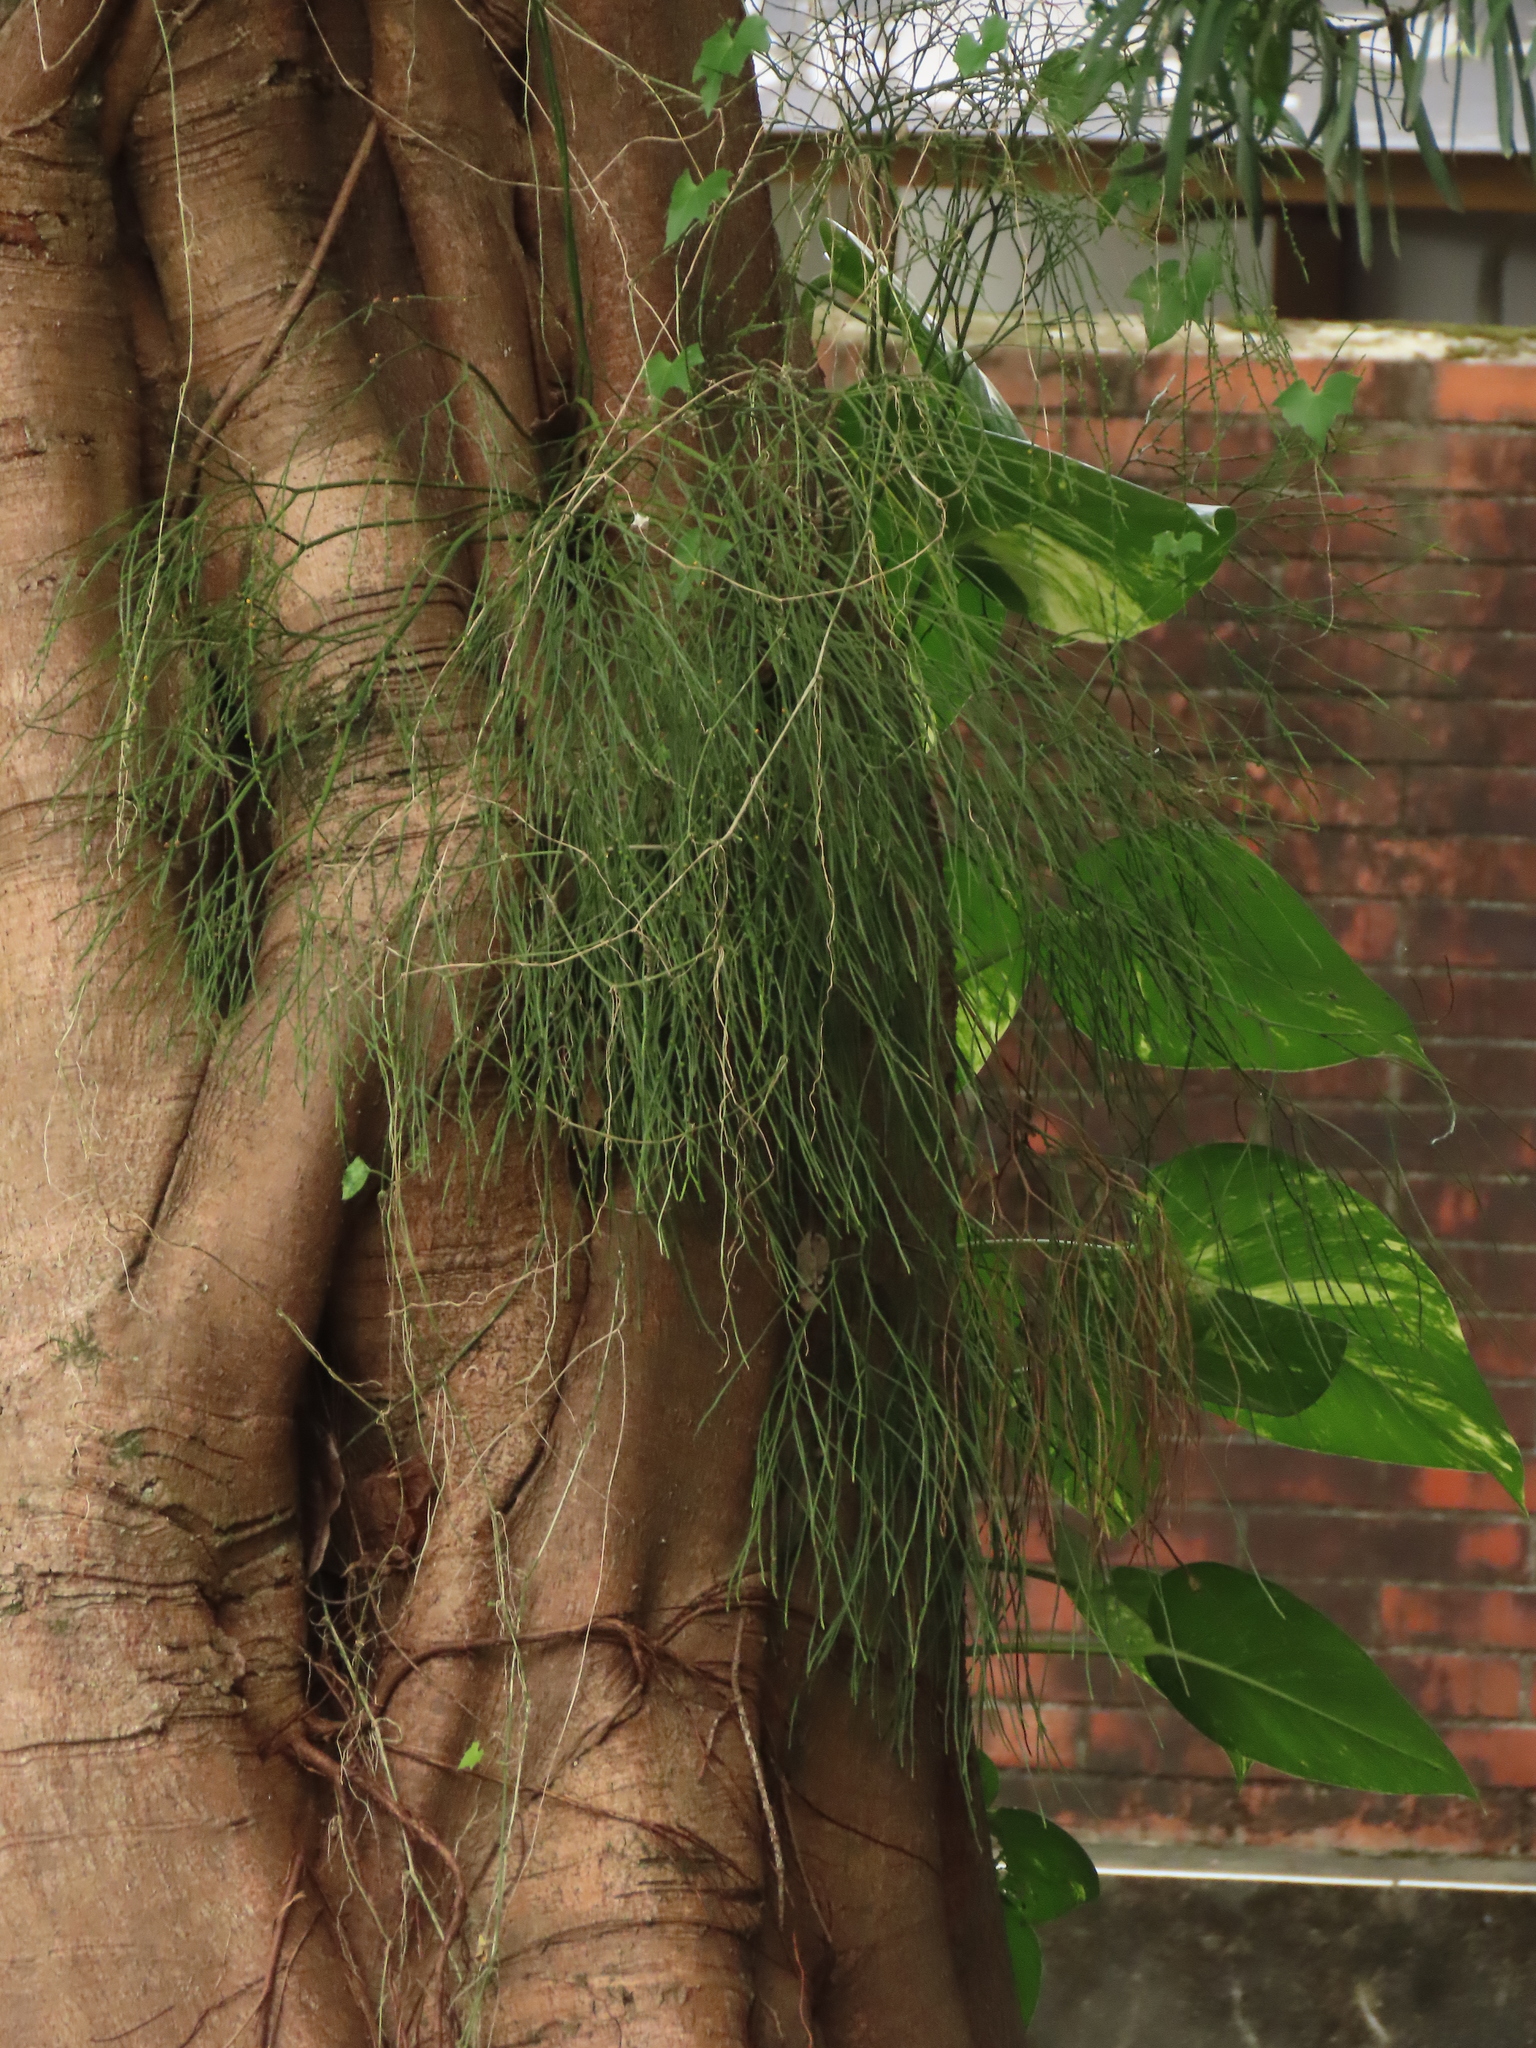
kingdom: Plantae
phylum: Tracheophyta
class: Polypodiopsida
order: Psilotales
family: Psilotaceae
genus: Psilotum
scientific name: Psilotum nudum
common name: Skeleton fork fern
